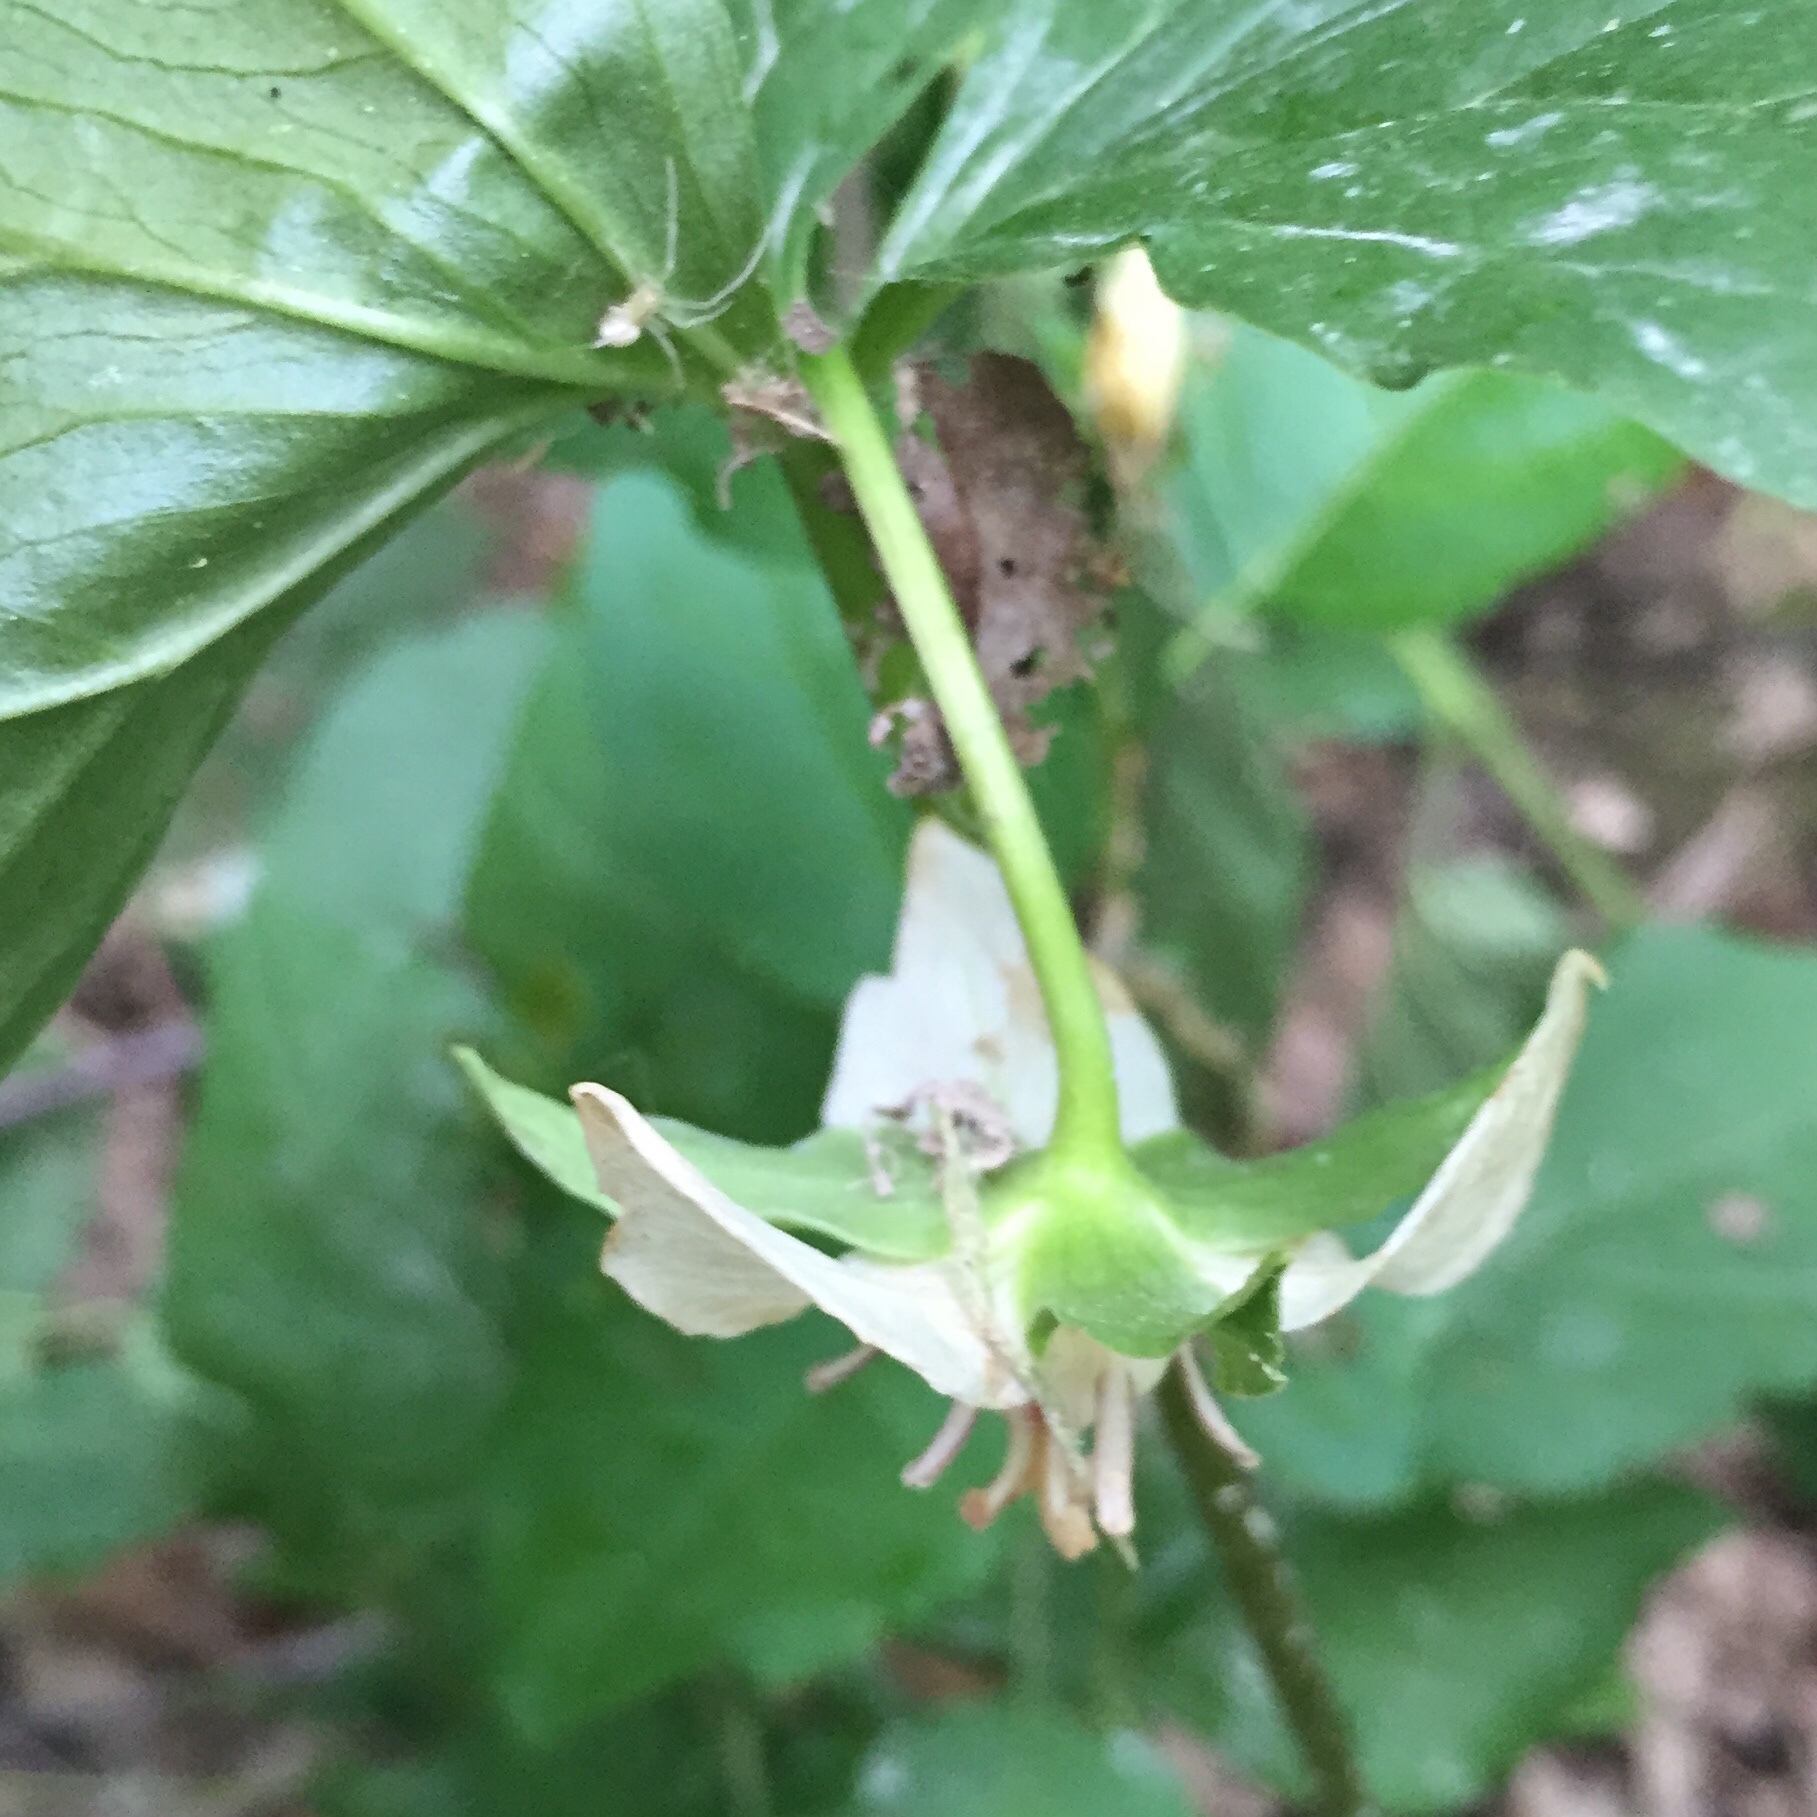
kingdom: Plantae
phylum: Tracheophyta
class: Liliopsida
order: Liliales
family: Melanthiaceae
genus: Trillium
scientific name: Trillium cernuum
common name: Nodding trillium
